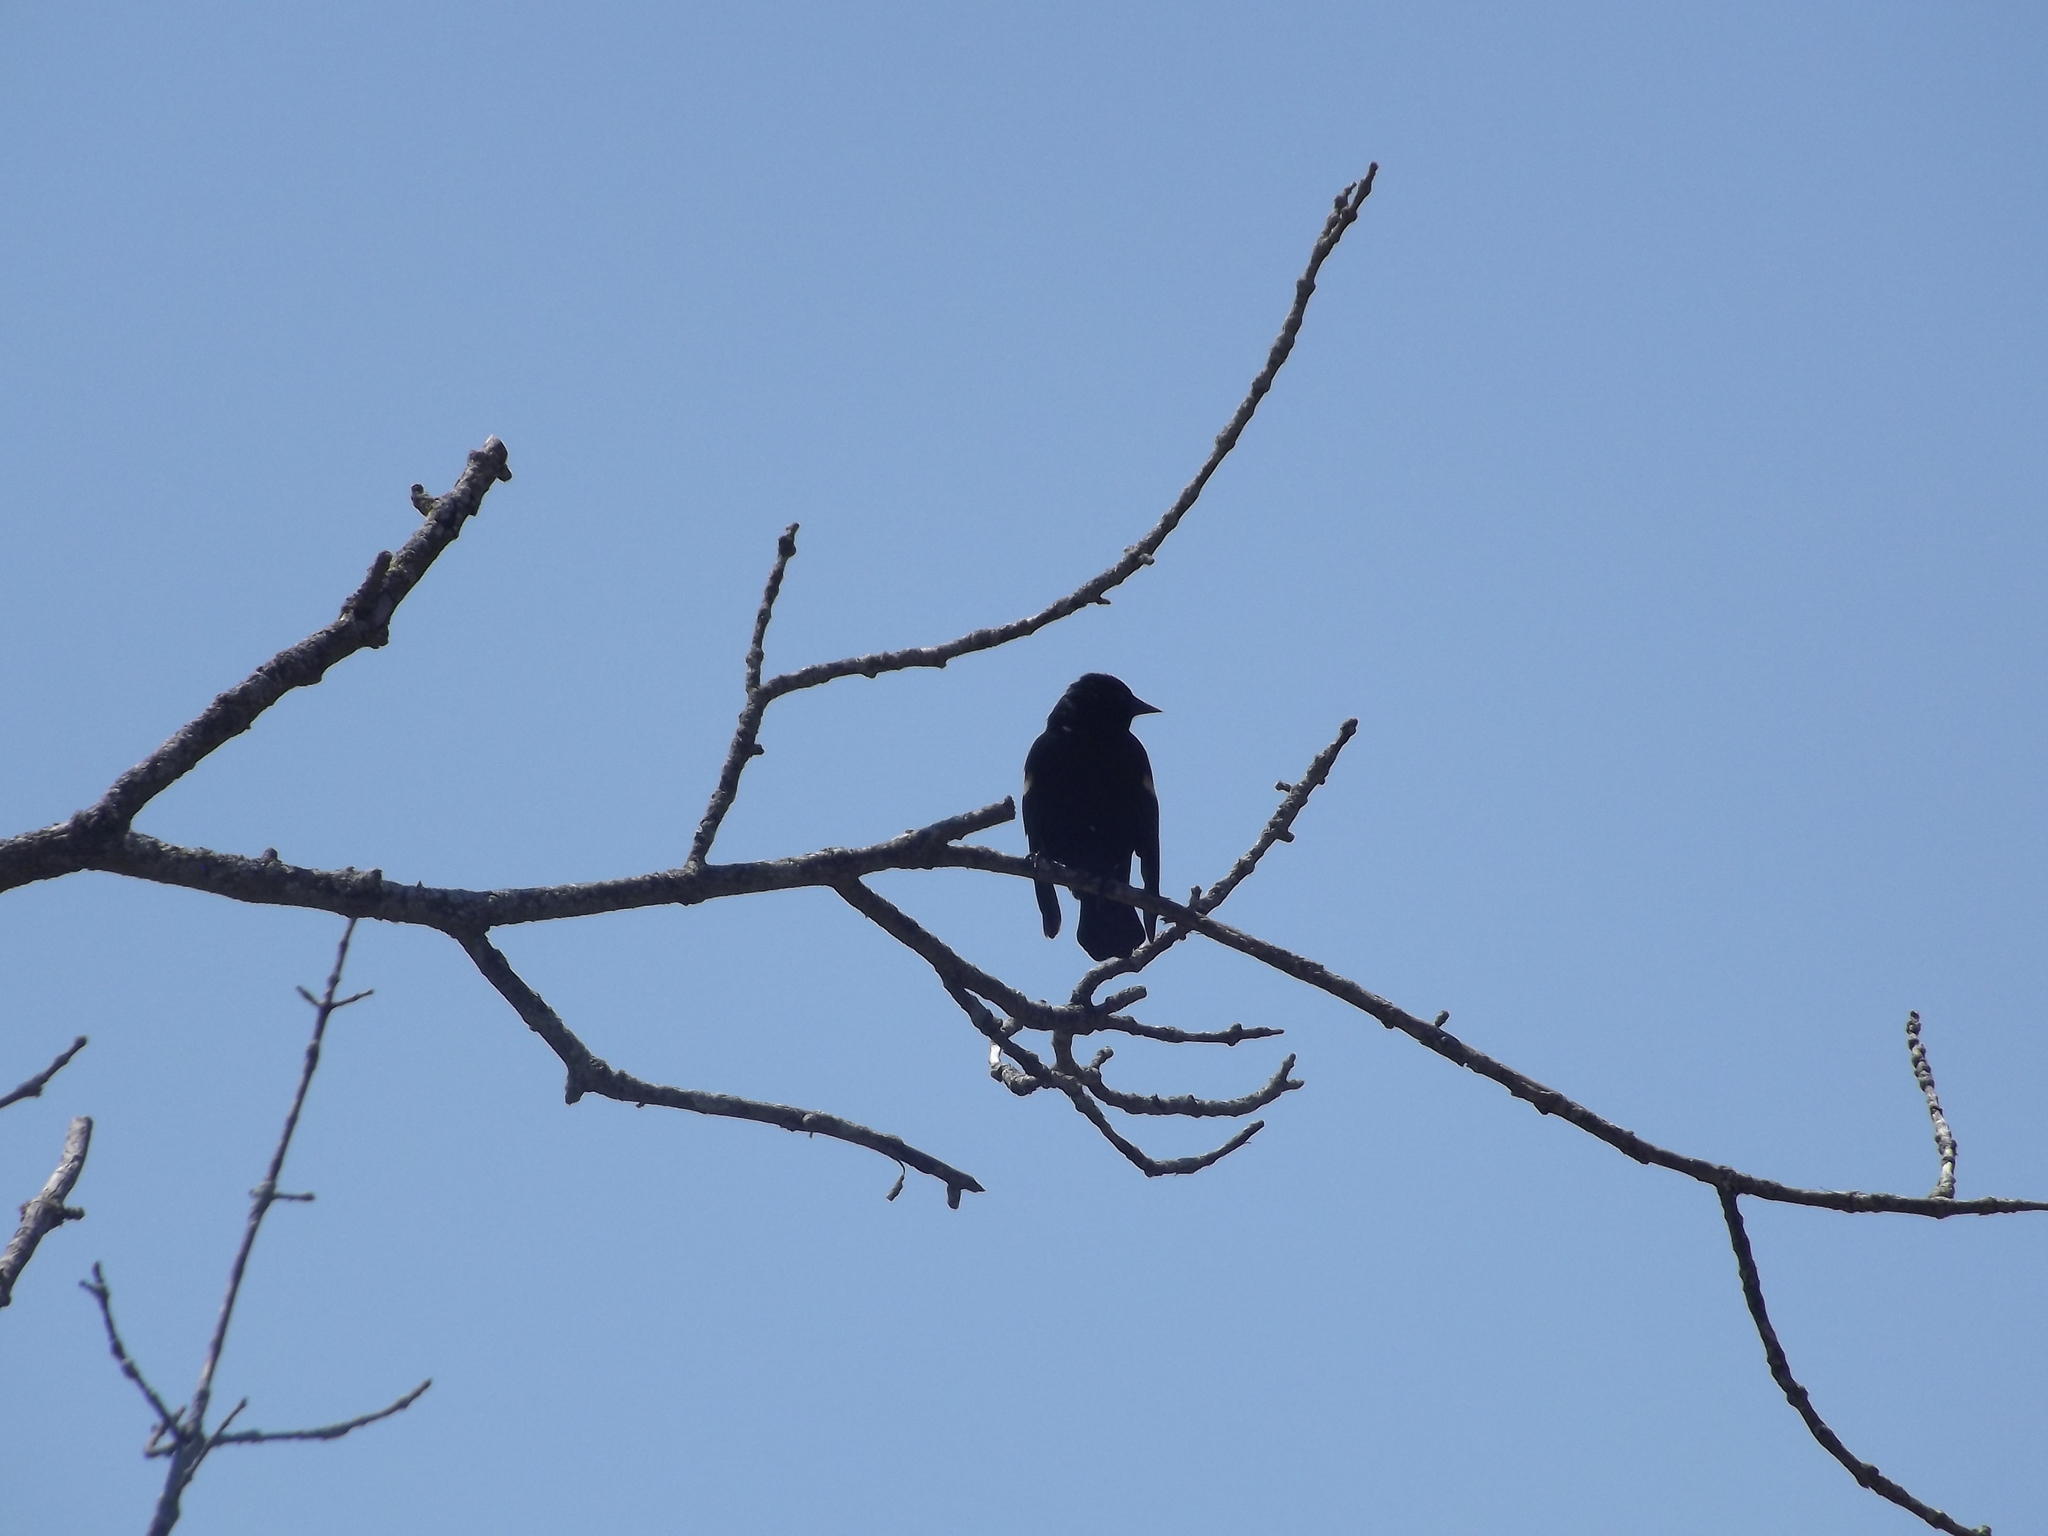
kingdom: Animalia
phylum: Chordata
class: Aves
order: Passeriformes
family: Icteridae
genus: Agelaius
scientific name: Agelaius phoeniceus
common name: Red-winged blackbird
